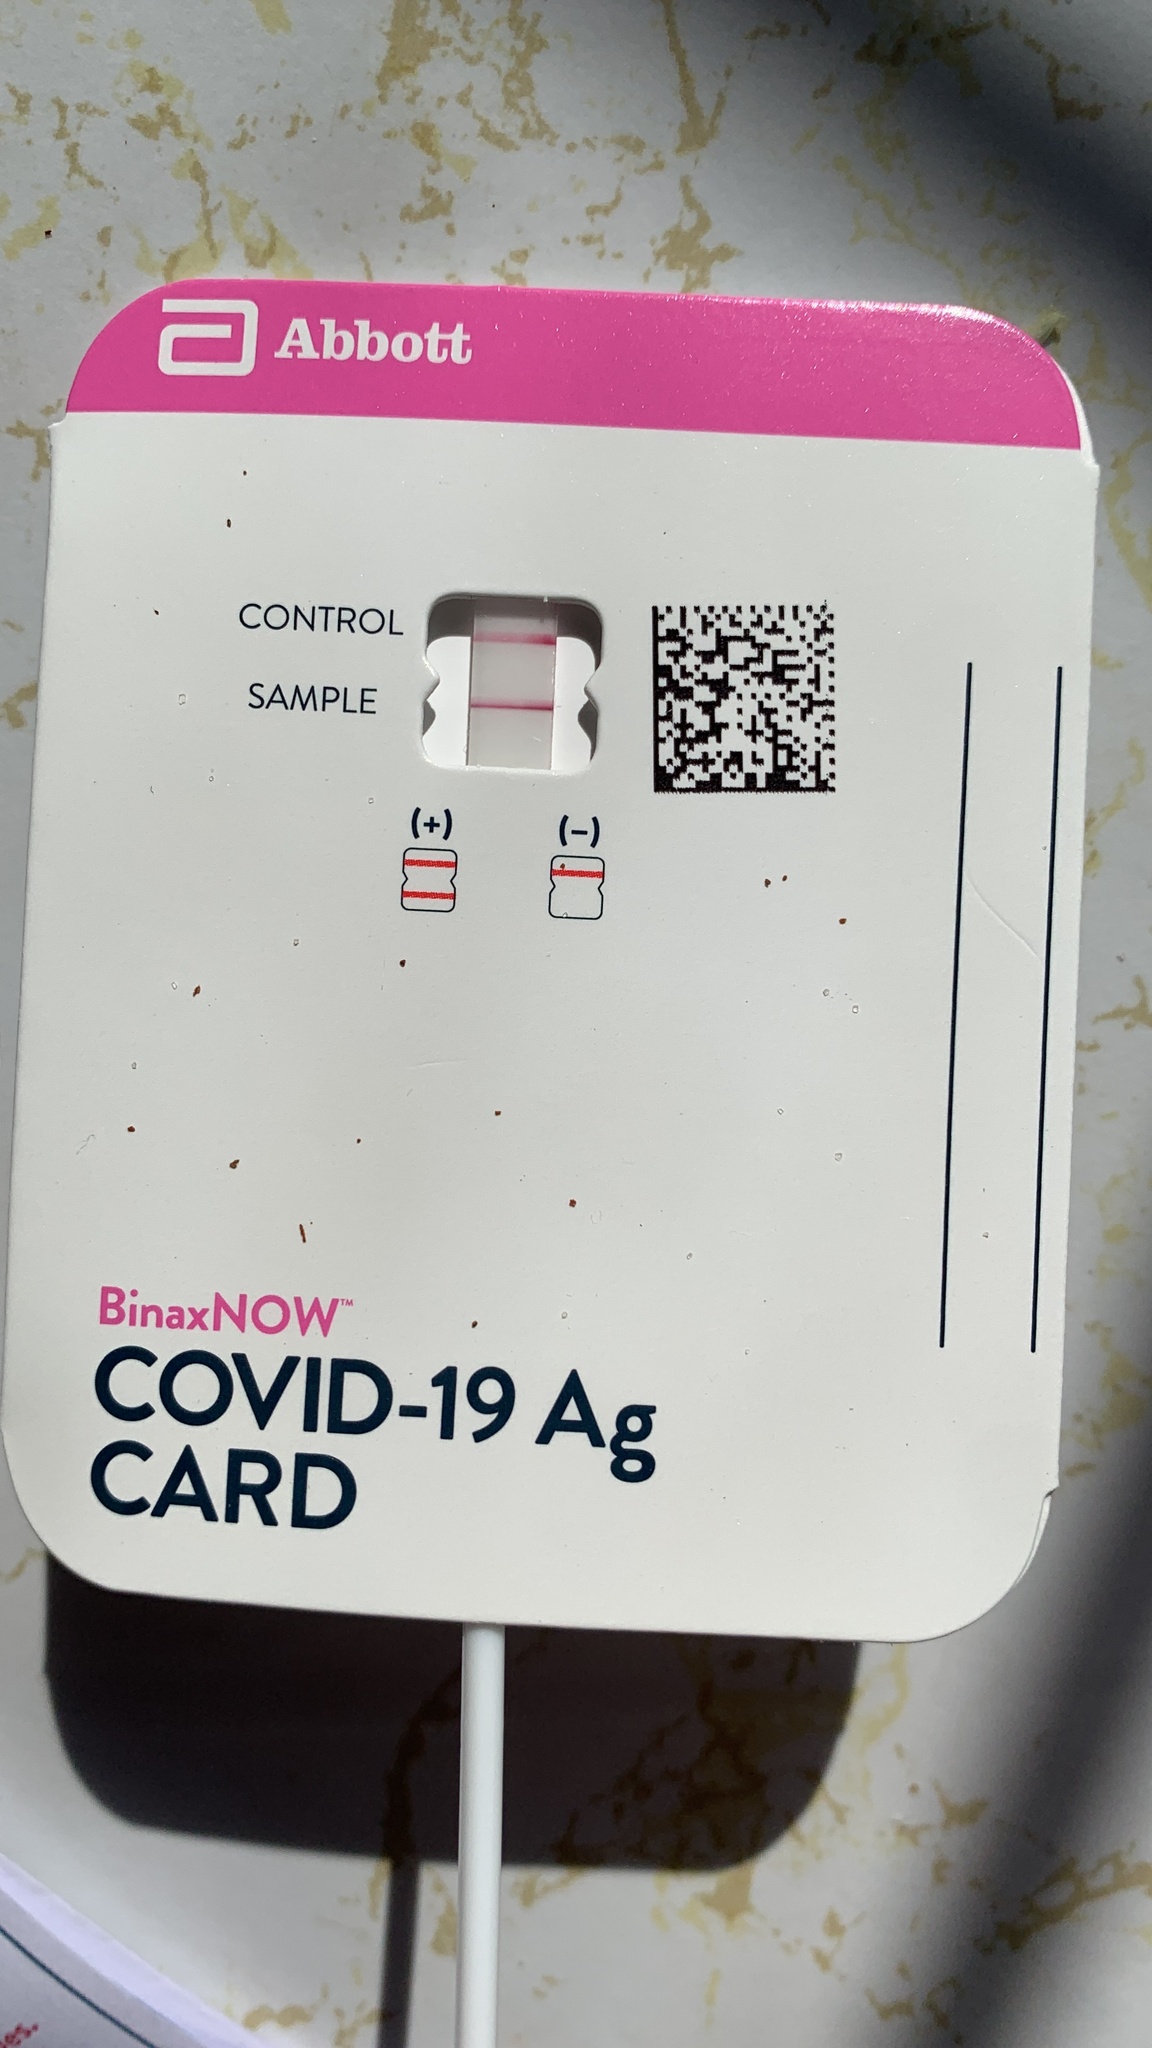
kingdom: Viruses
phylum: Pisuviricota
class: Pisoniviricetes
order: Nidovirales
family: Coronaviridae
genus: Betacoronavirus
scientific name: Betacoronavirus
